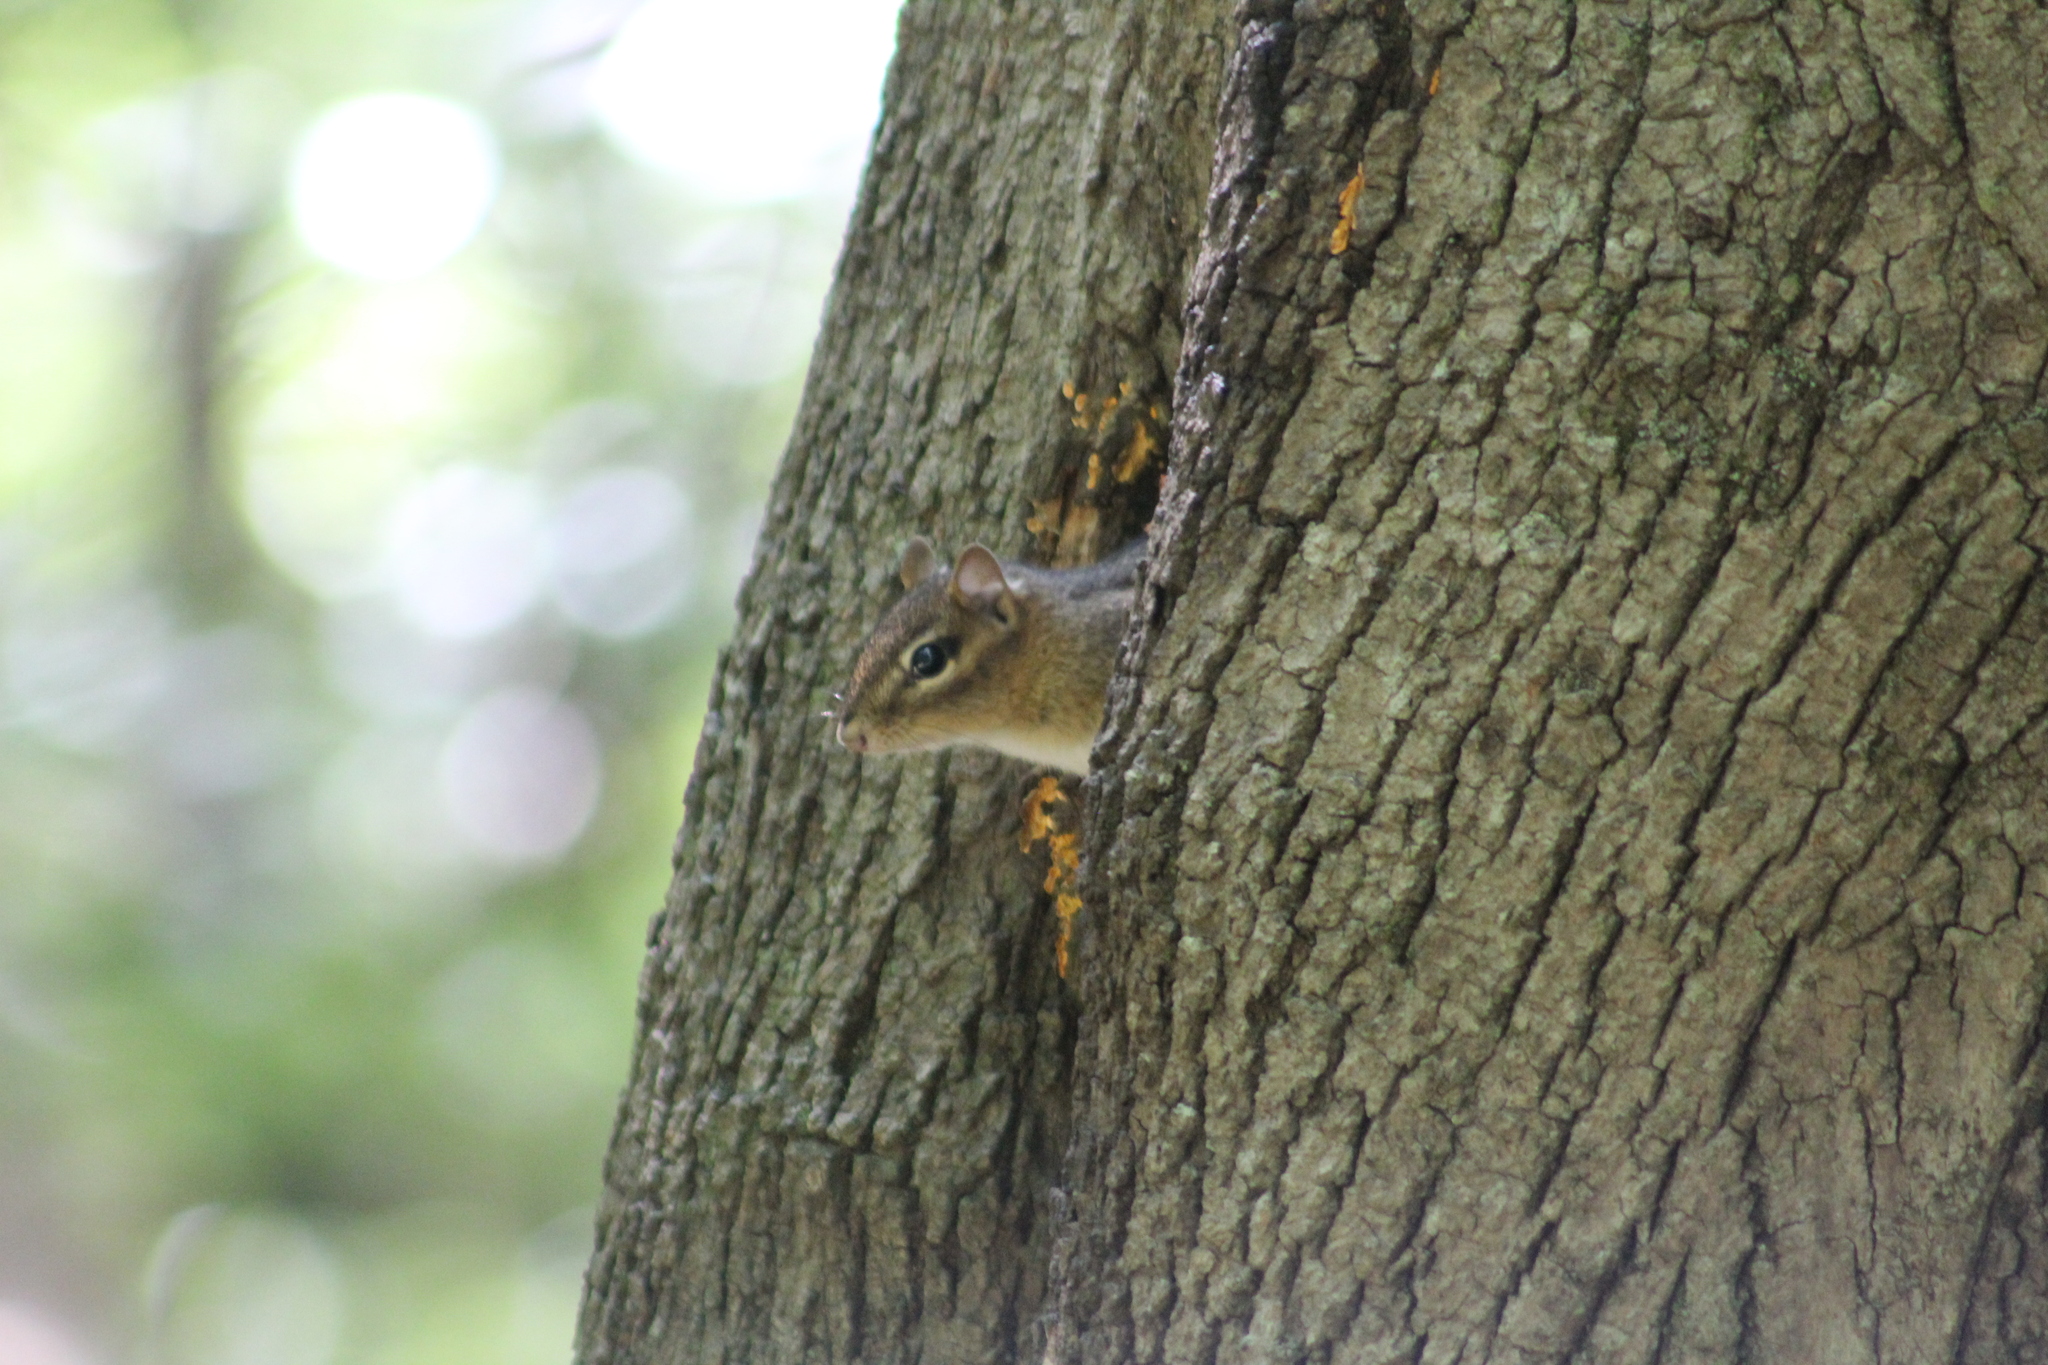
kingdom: Animalia
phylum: Chordata
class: Mammalia
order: Rodentia
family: Sciuridae
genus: Tamias
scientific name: Tamias striatus
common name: Eastern chipmunk
